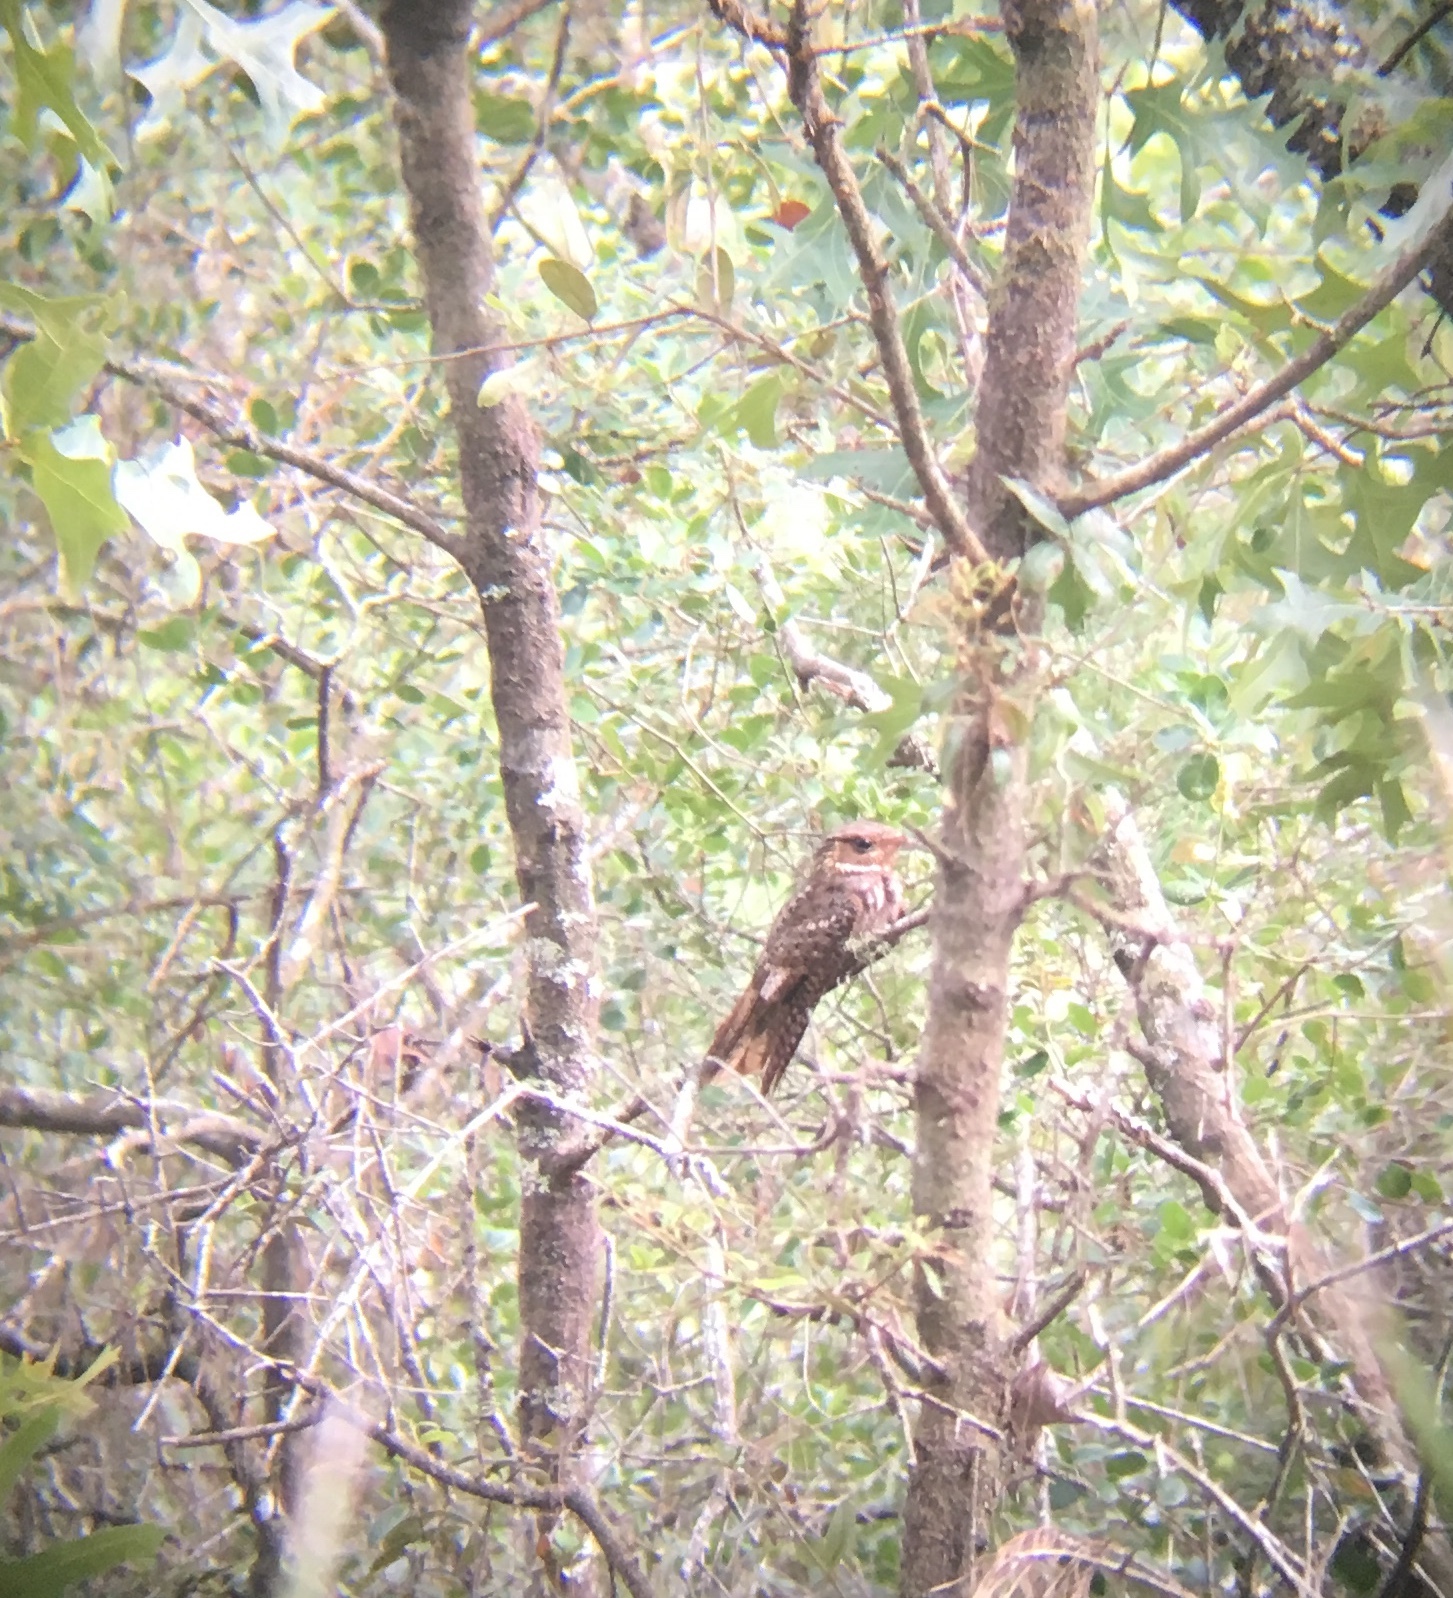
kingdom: Animalia
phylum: Chordata
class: Aves
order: Caprimulgiformes
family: Caprimulgidae
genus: Antrostomus
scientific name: Antrostomus carolinensis
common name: Chuck-will's-widow
